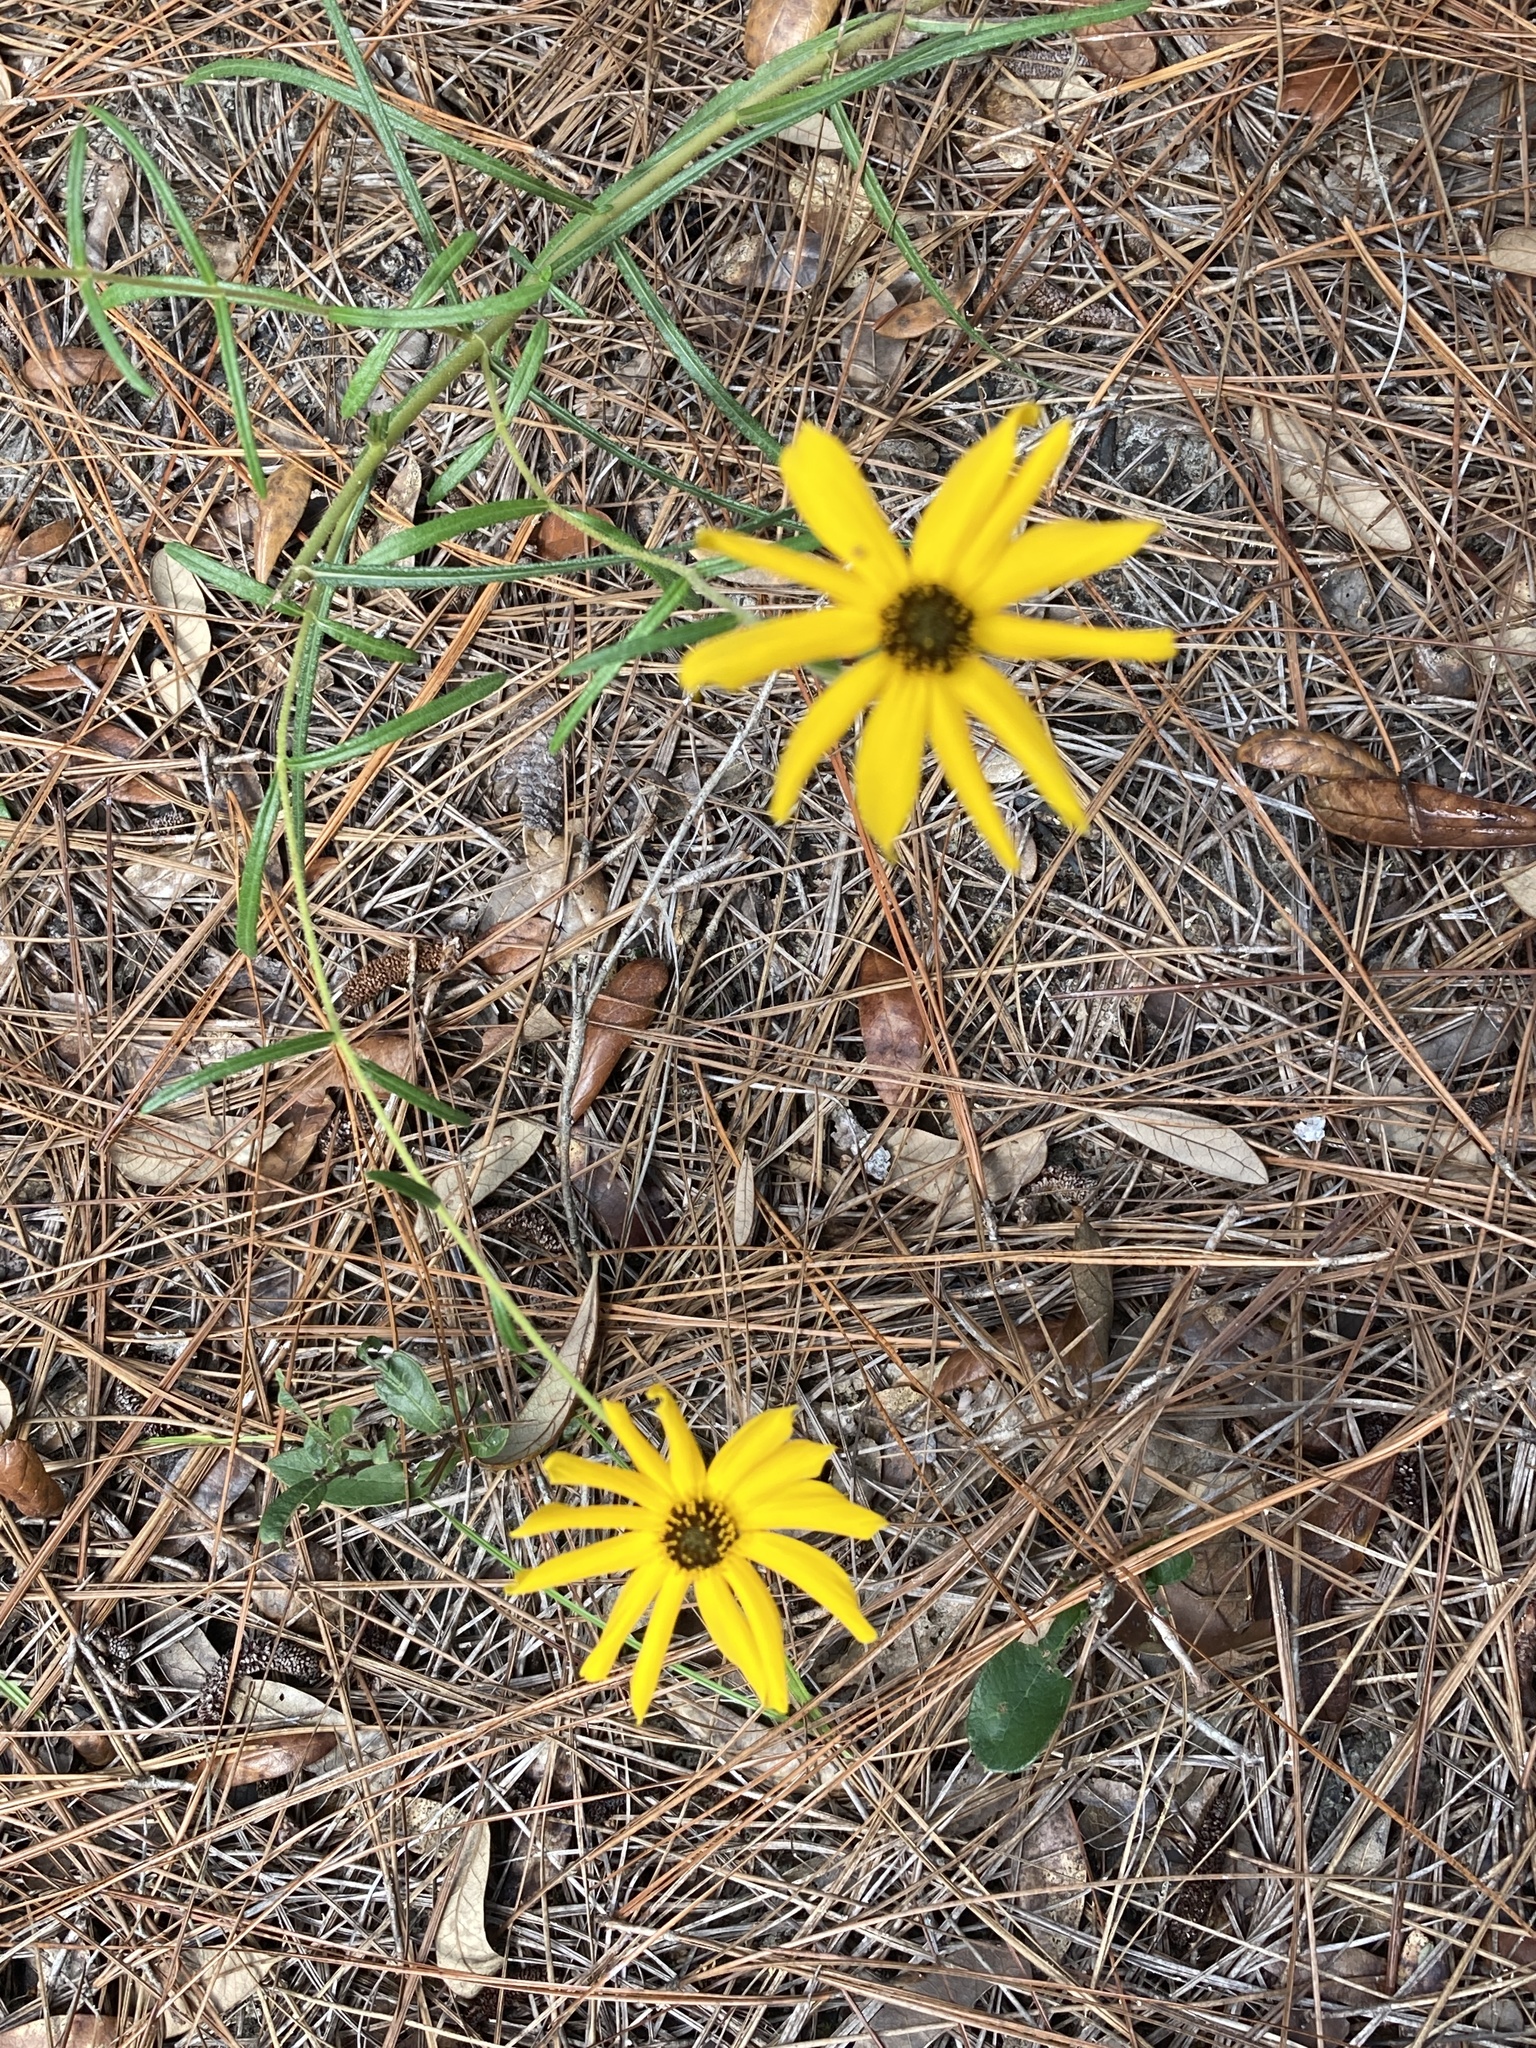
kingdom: Plantae
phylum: Tracheophyta
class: Magnoliopsida
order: Asterales
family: Asteraceae
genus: Helianthus
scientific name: Helianthus angustifolius
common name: Swamp sunflower
